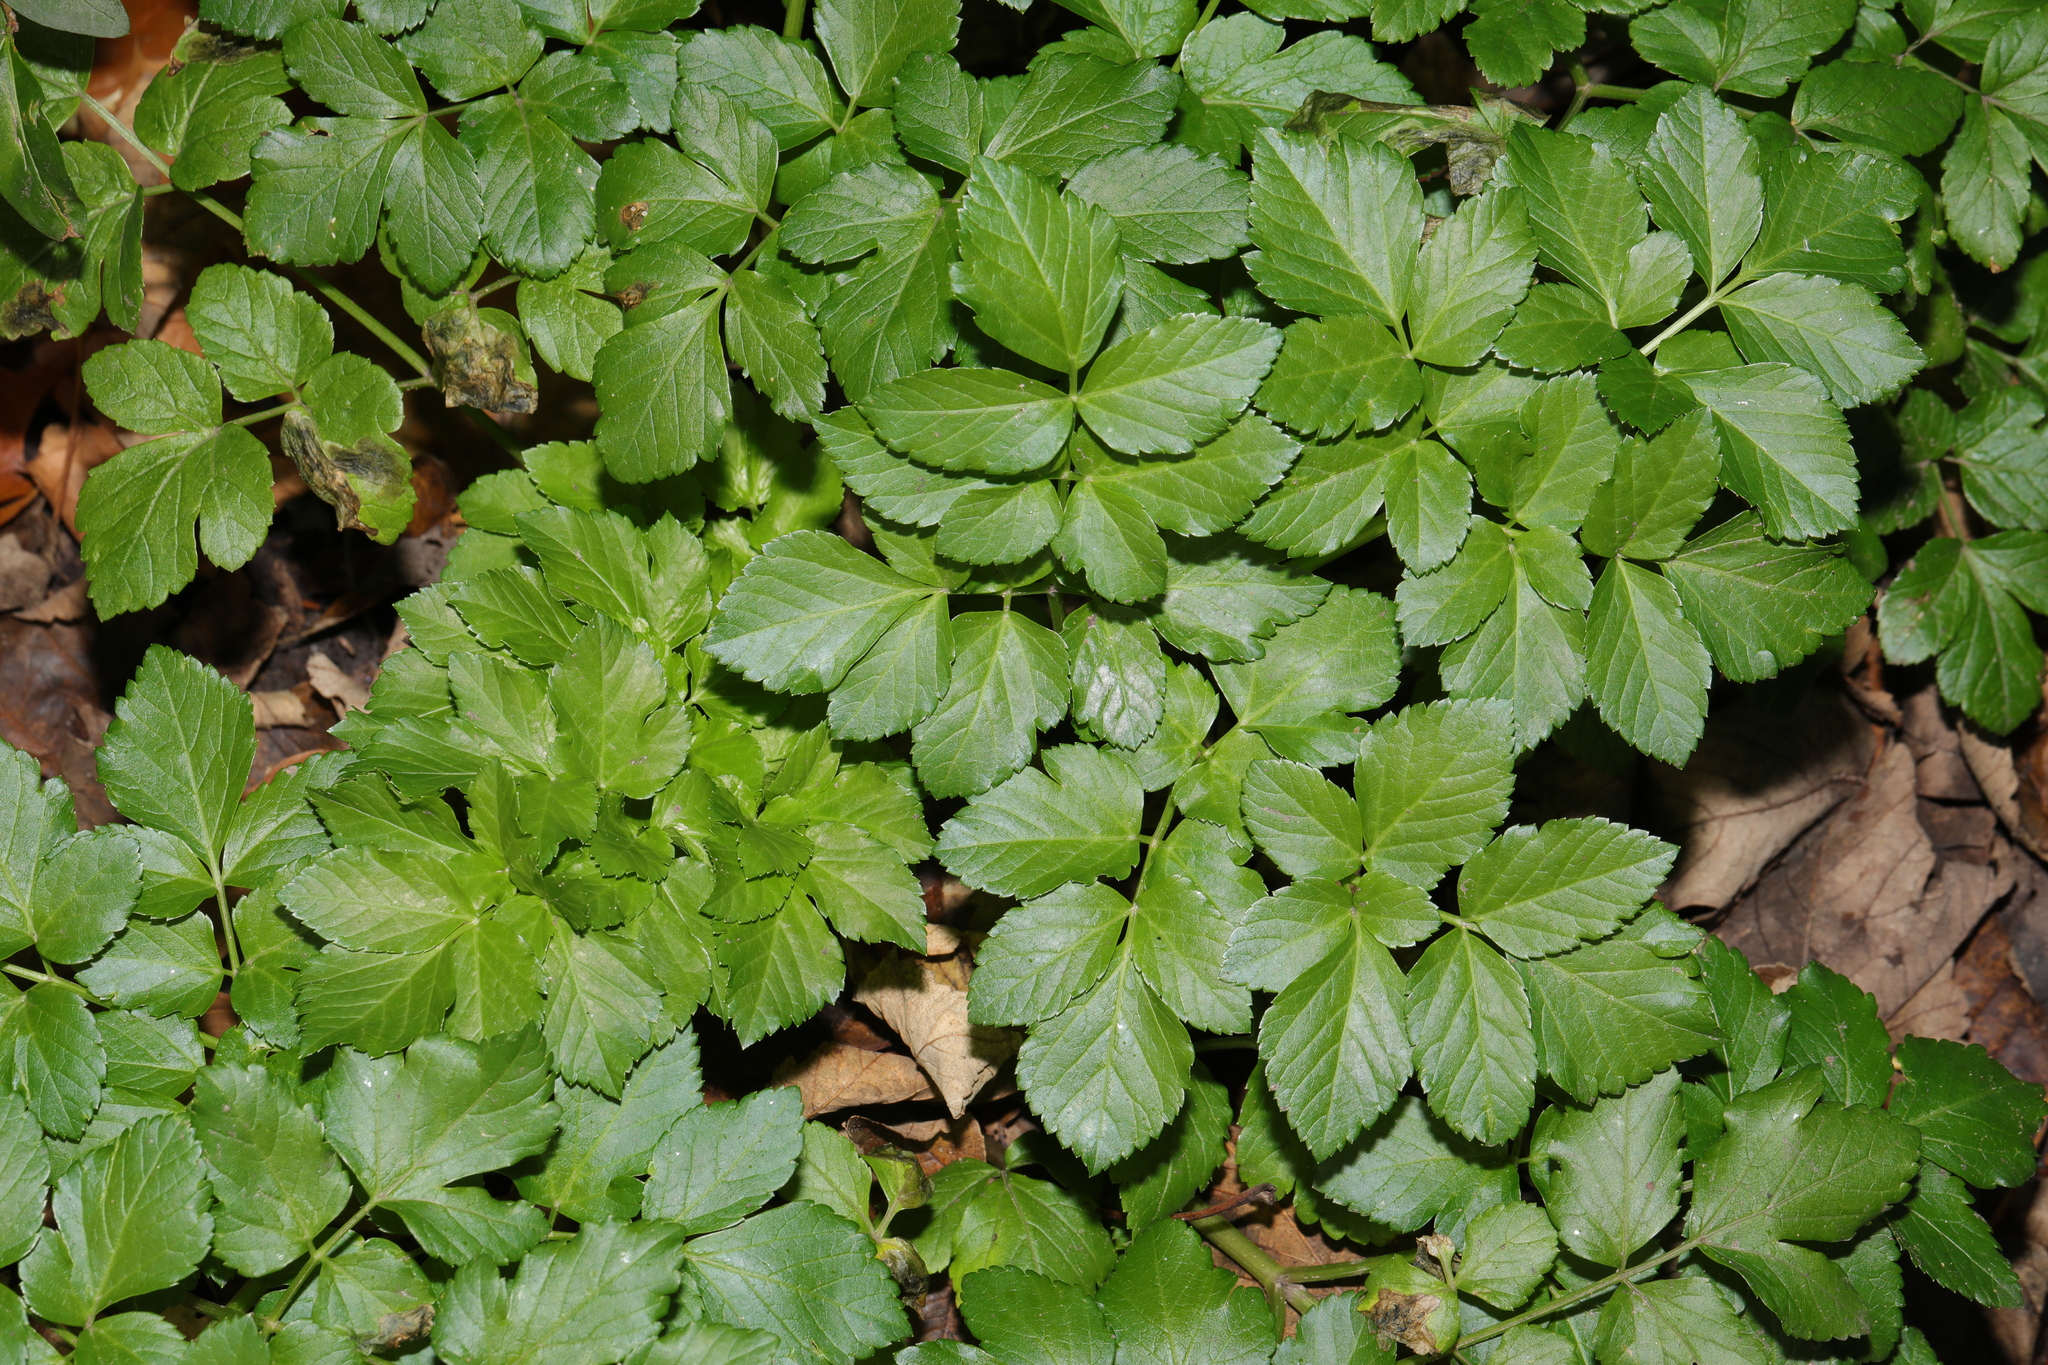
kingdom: Plantae
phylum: Tracheophyta
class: Magnoliopsida
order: Apiales
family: Apiaceae
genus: Smyrnium
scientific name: Smyrnium olusatrum
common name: Alexanders
